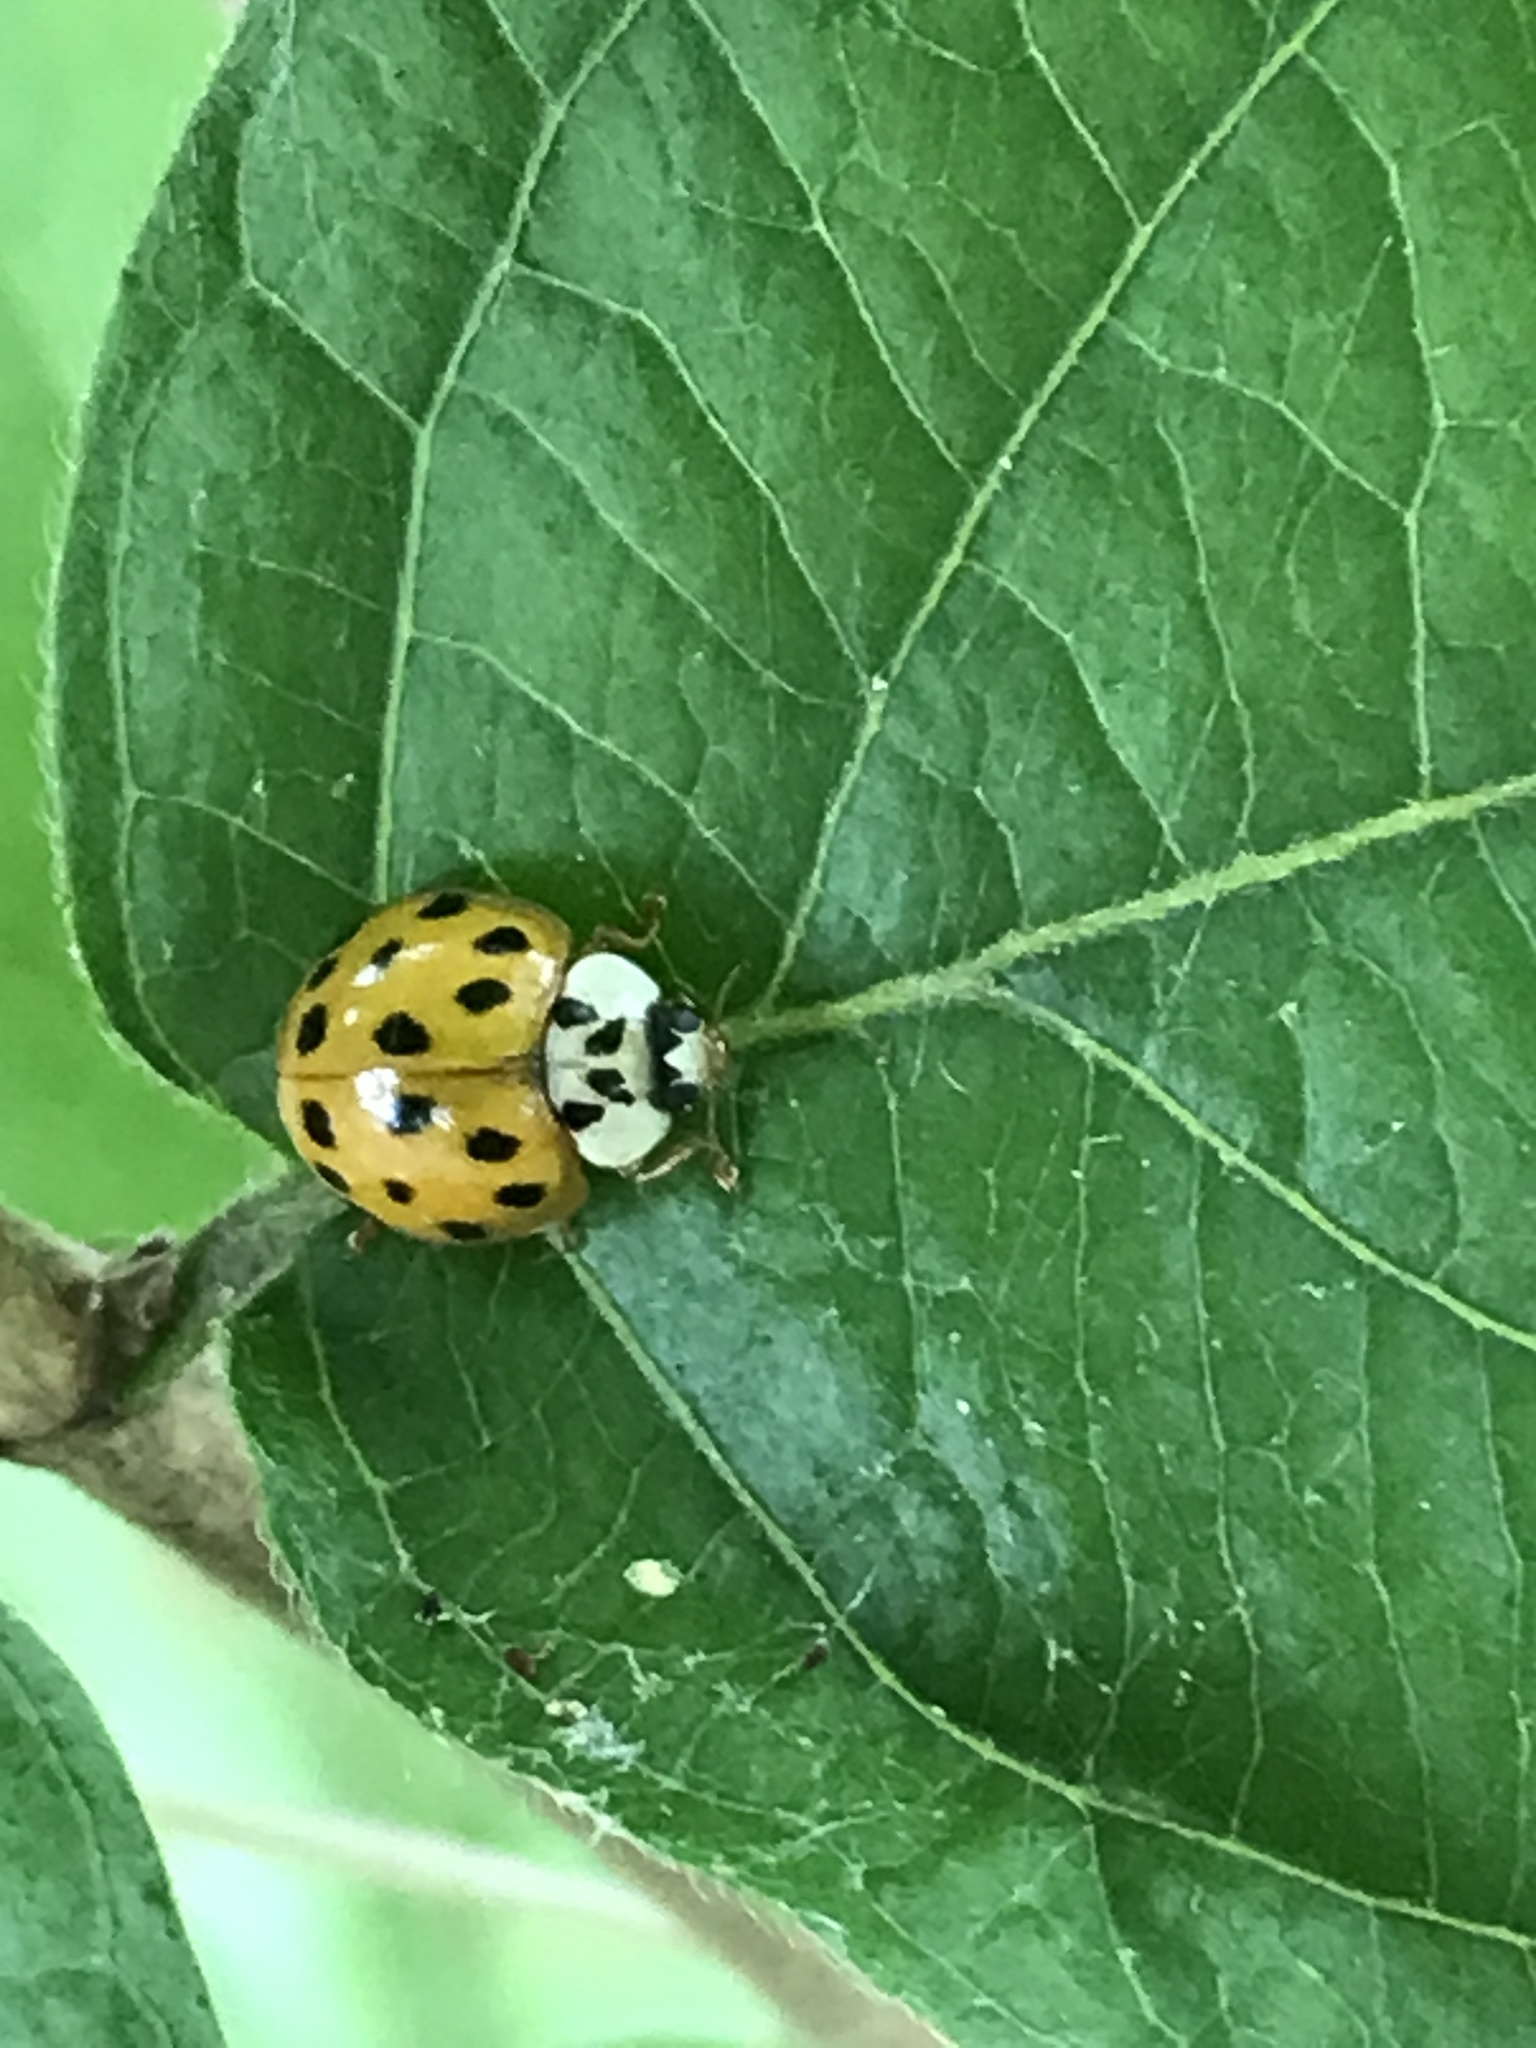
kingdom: Animalia
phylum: Arthropoda
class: Insecta
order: Coleoptera
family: Coccinellidae
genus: Harmonia
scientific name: Harmonia axyridis
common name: Harlequin ladybird
